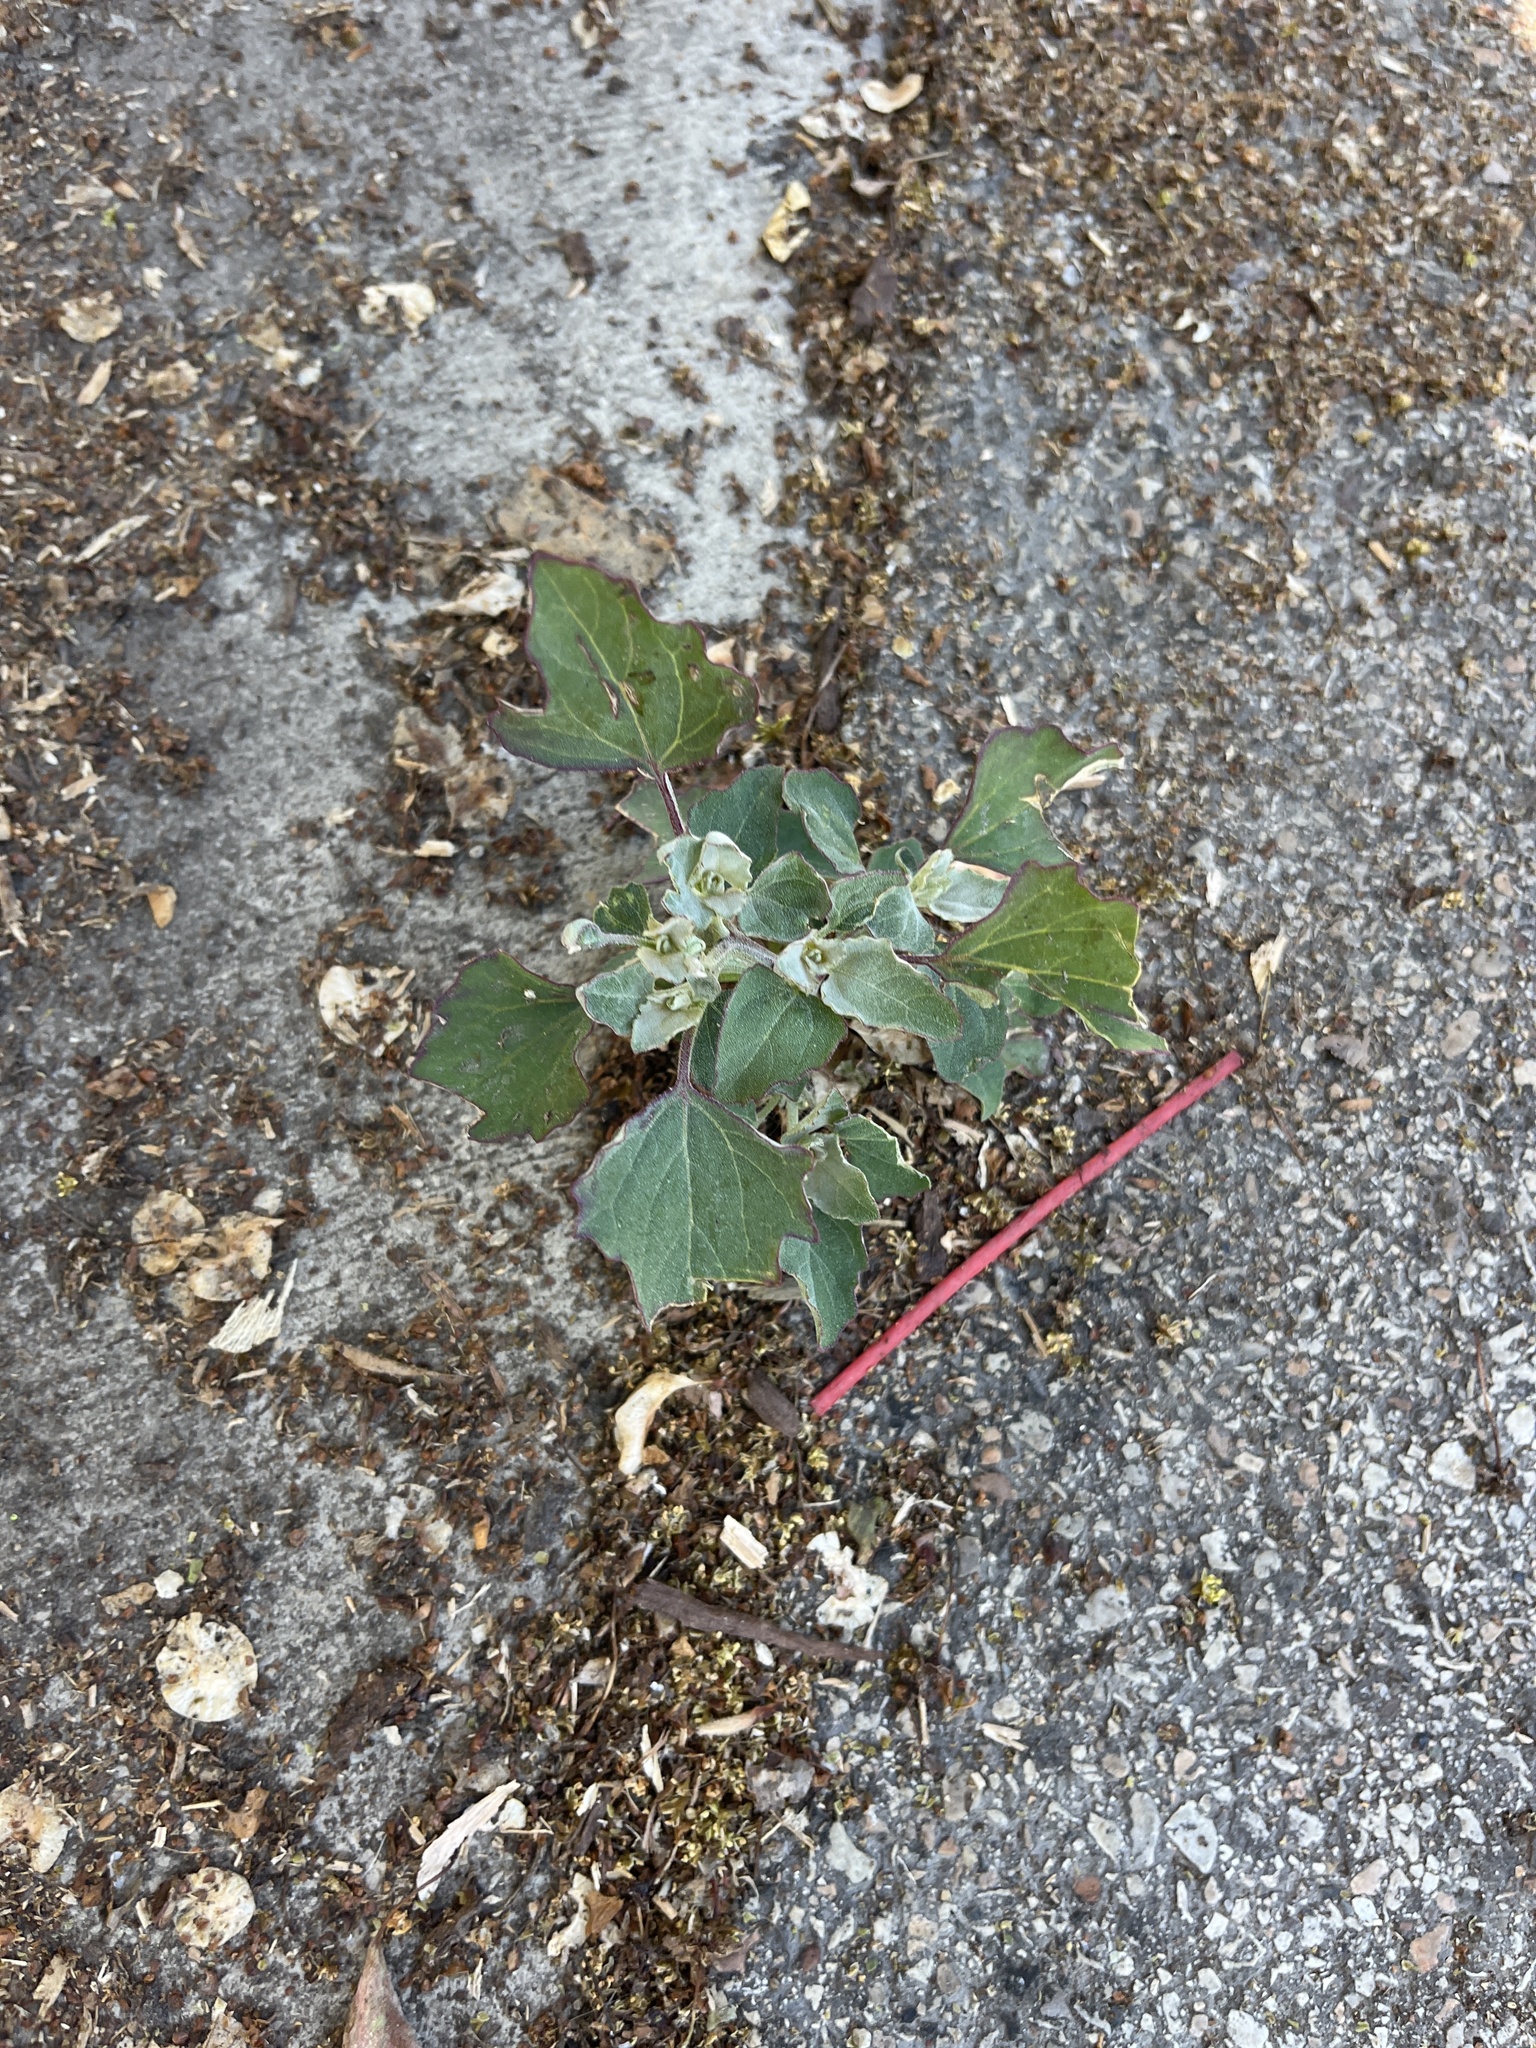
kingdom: Plantae
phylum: Tracheophyta
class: Magnoliopsida
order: Caryophyllales
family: Amaranthaceae
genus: Chenopodium
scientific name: Chenopodium album
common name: Fat-hen
